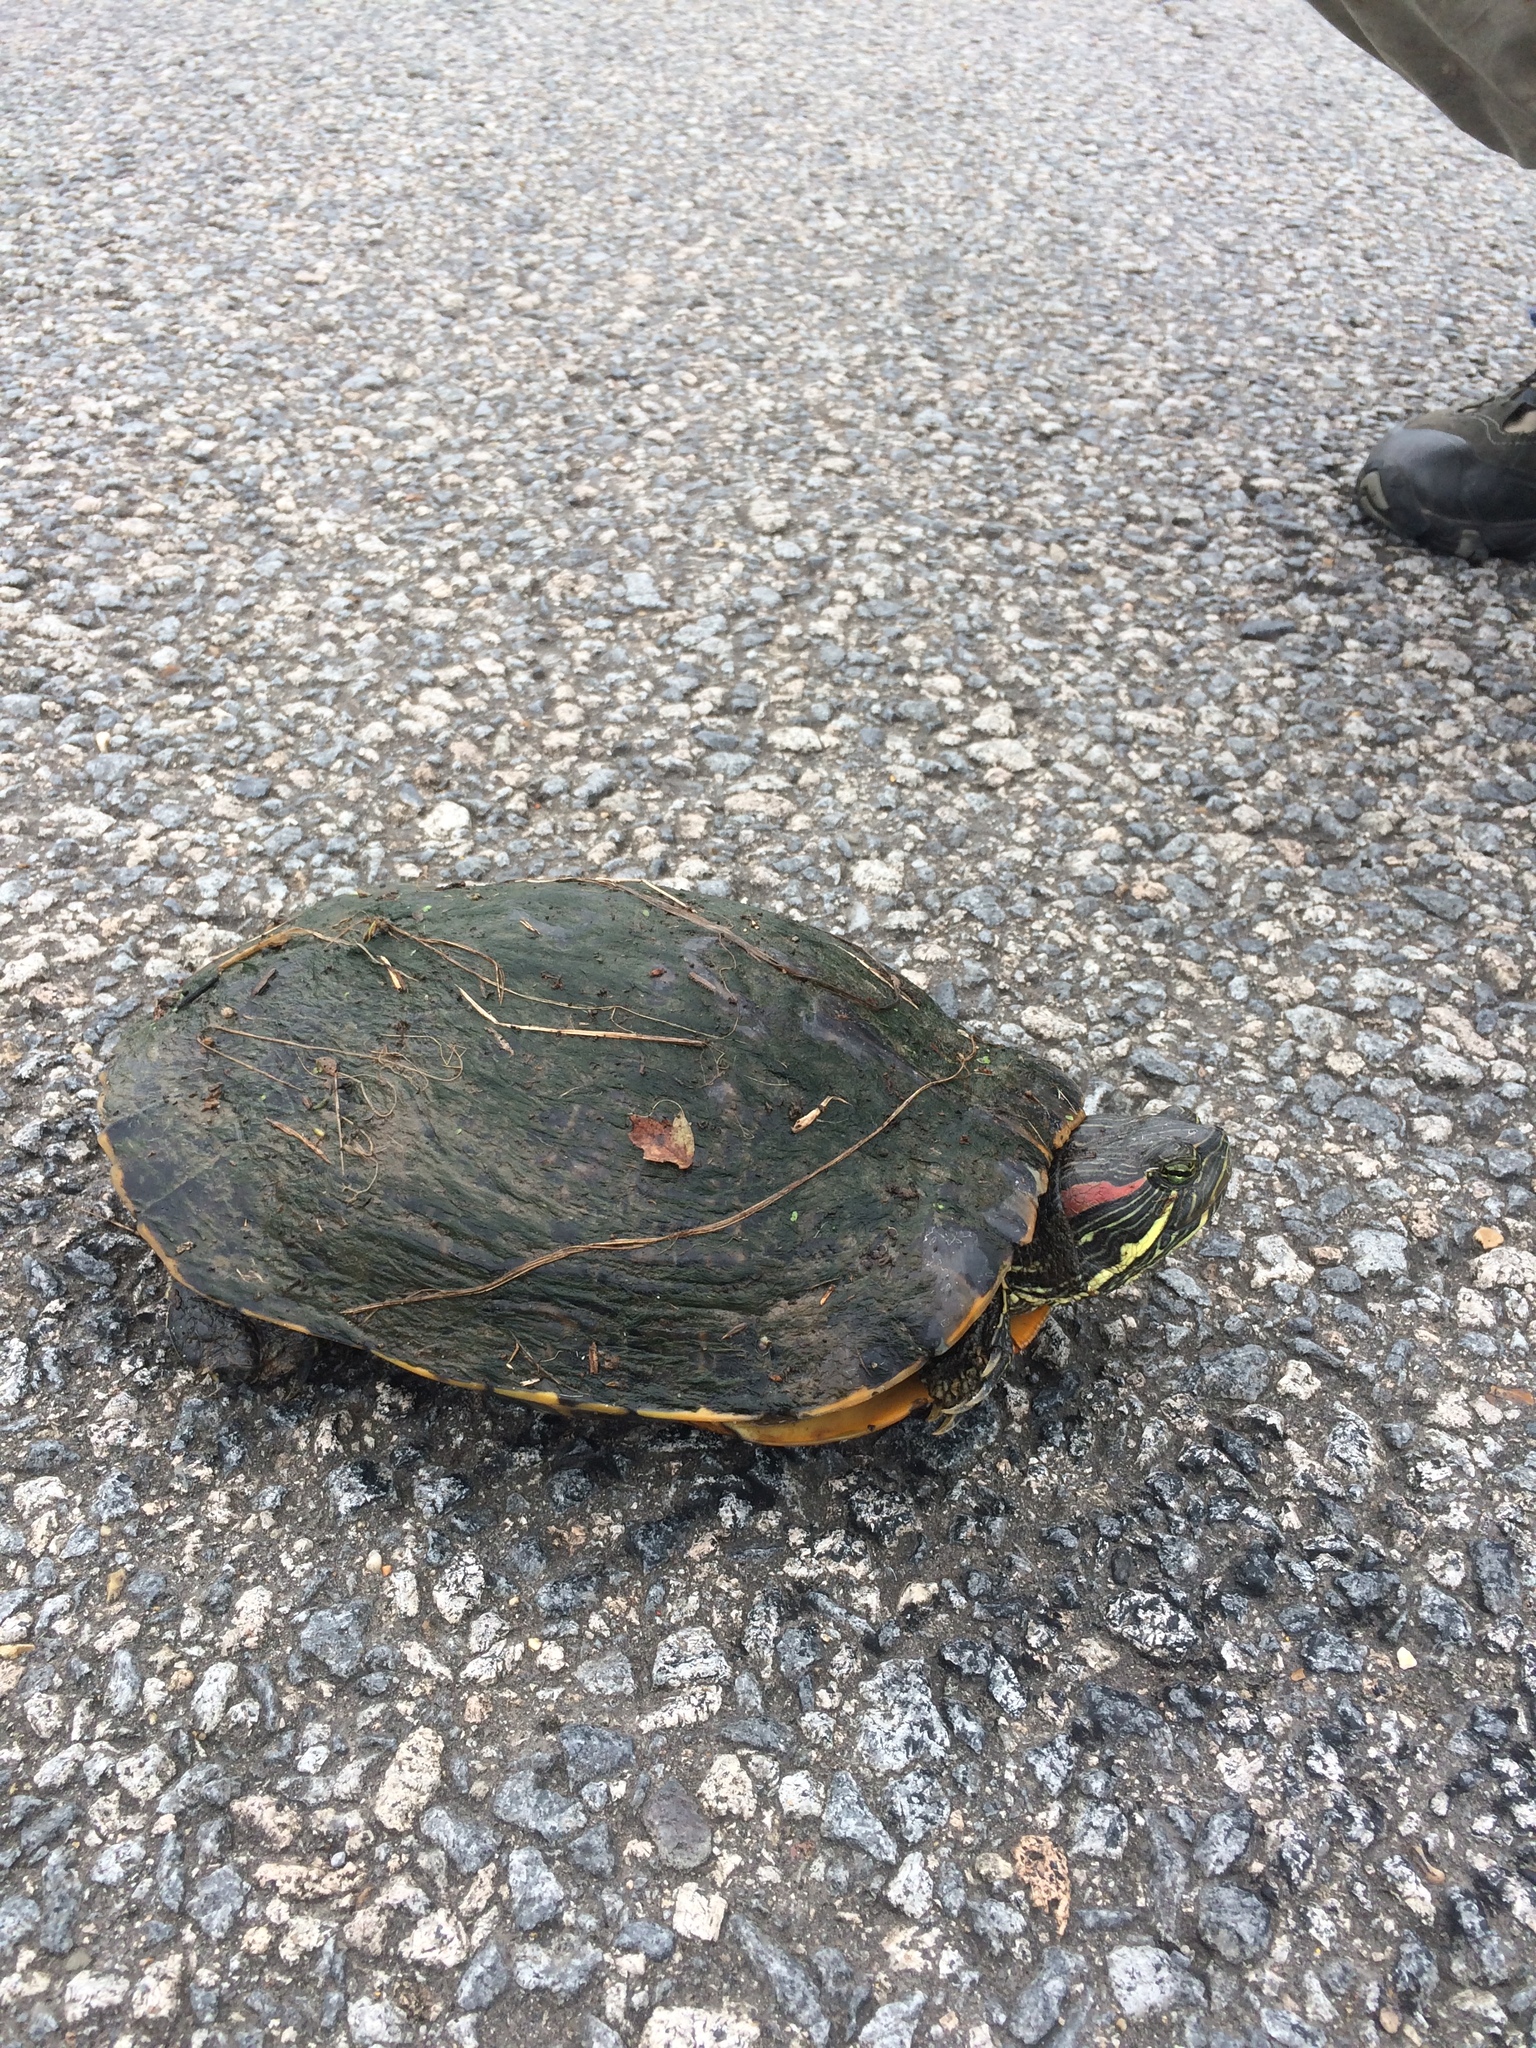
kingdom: Animalia
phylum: Chordata
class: Testudines
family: Emydidae
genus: Trachemys
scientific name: Trachemys scripta
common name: Slider
